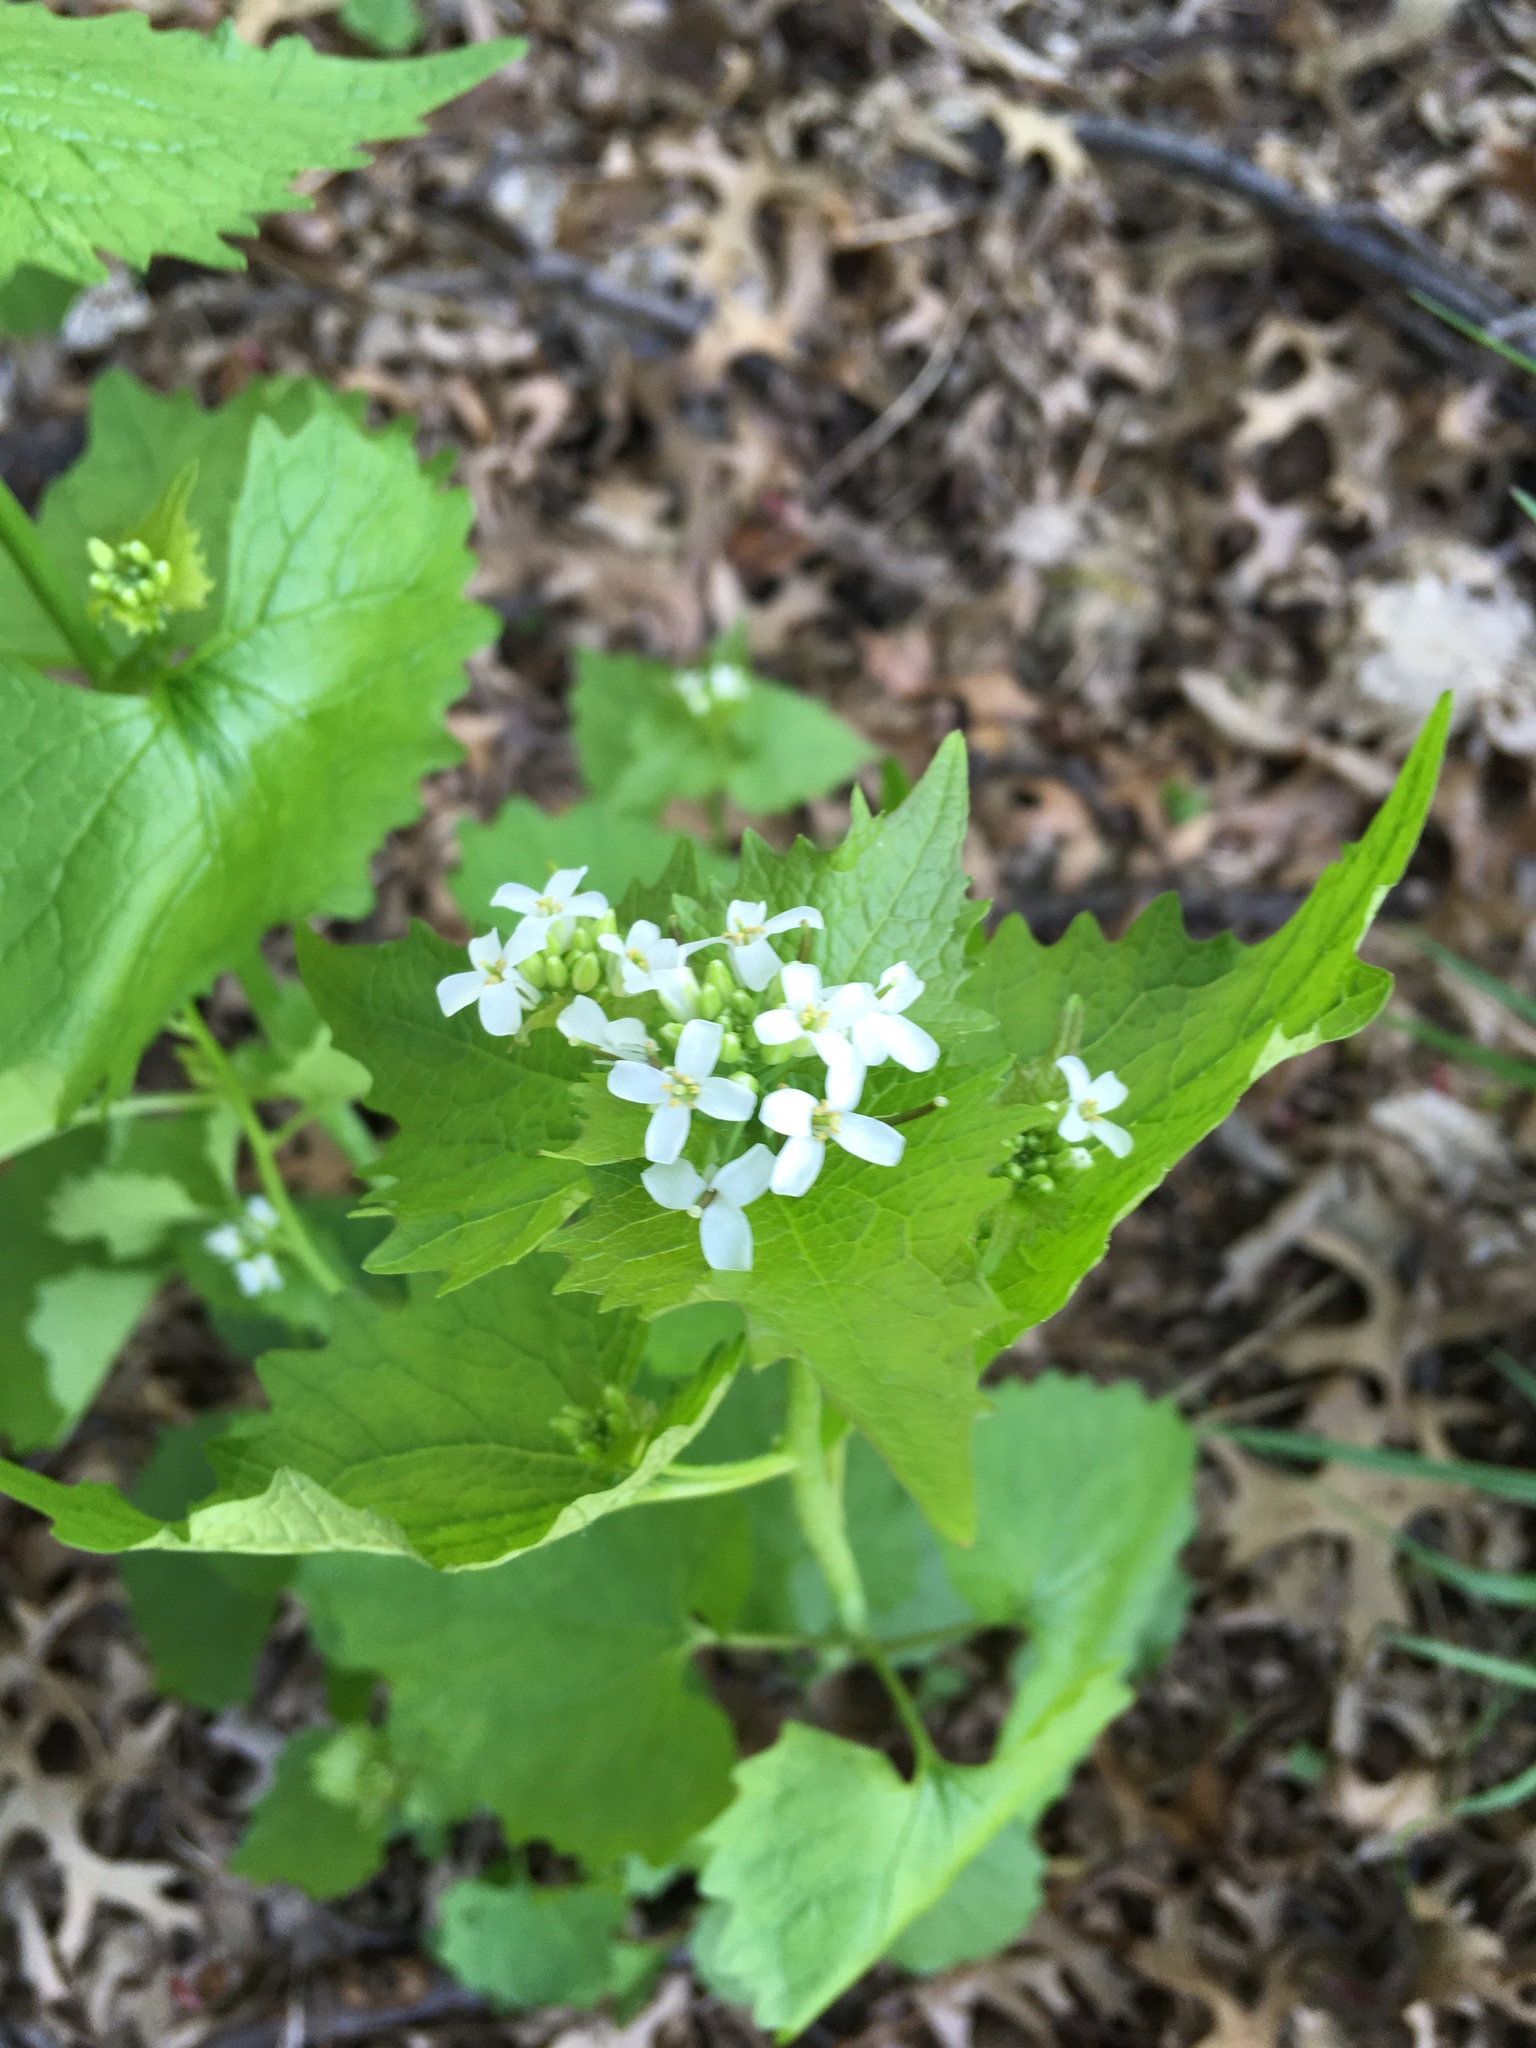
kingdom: Plantae
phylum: Tracheophyta
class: Magnoliopsida
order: Brassicales
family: Brassicaceae
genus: Alliaria
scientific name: Alliaria petiolata
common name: Garlic mustard
